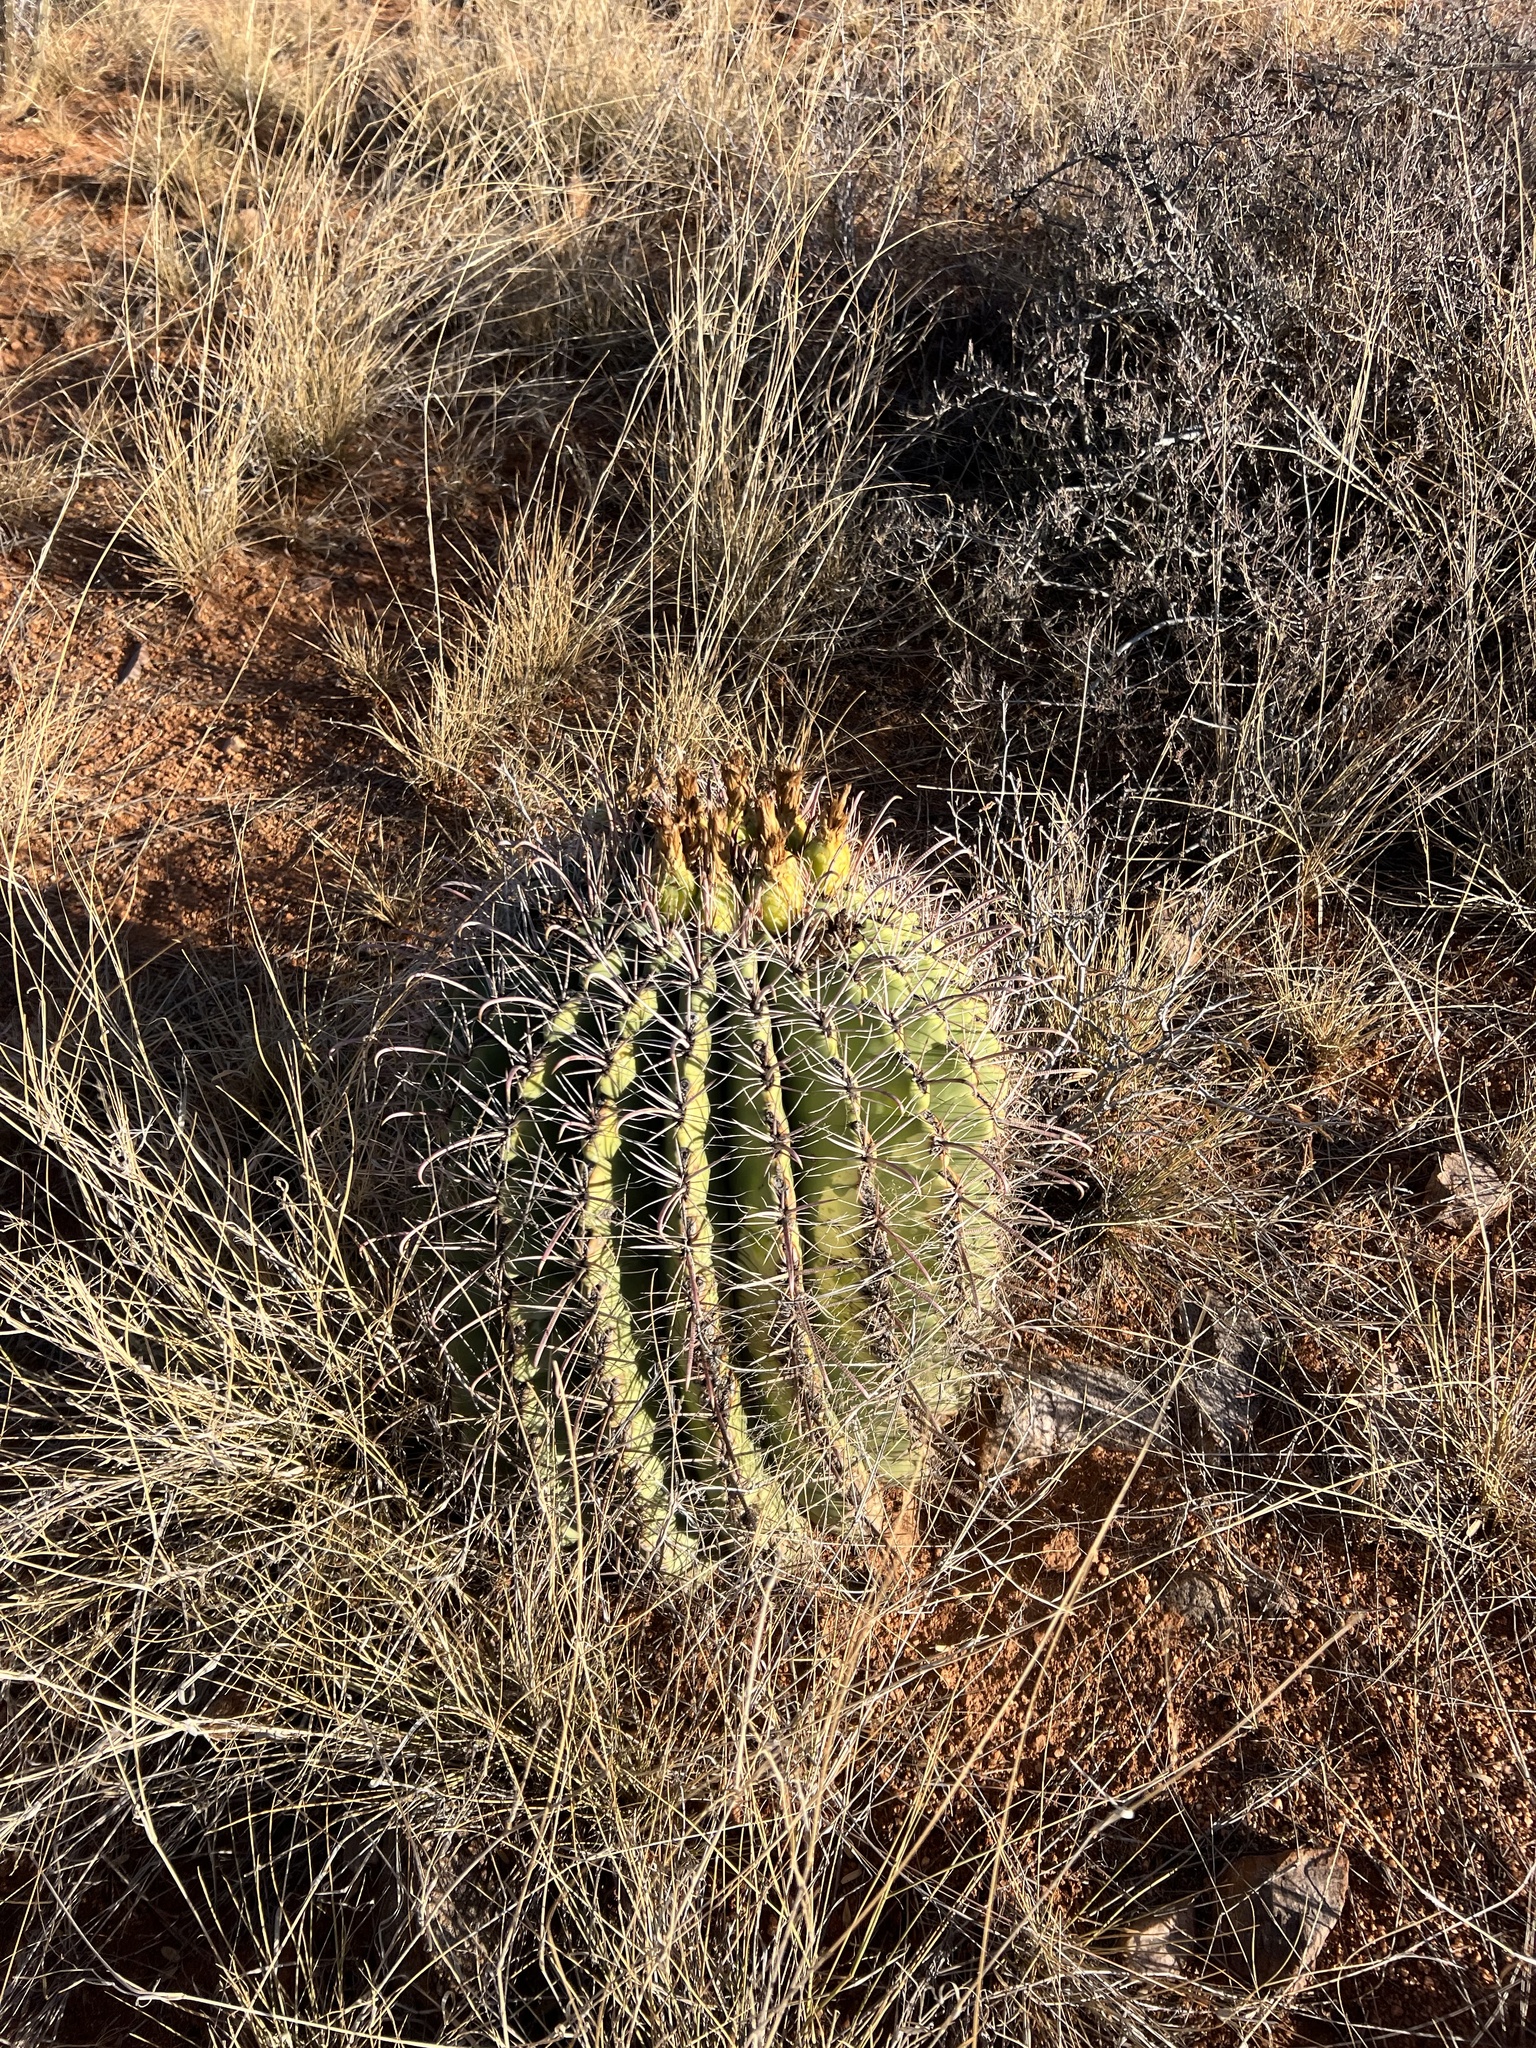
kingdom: Plantae
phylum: Tracheophyta
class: Magnoliopsida
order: Caryophyllales
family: Cactaceae
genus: Ferocactus
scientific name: Ferocactus wislizeni
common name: Candy barrel cactus
